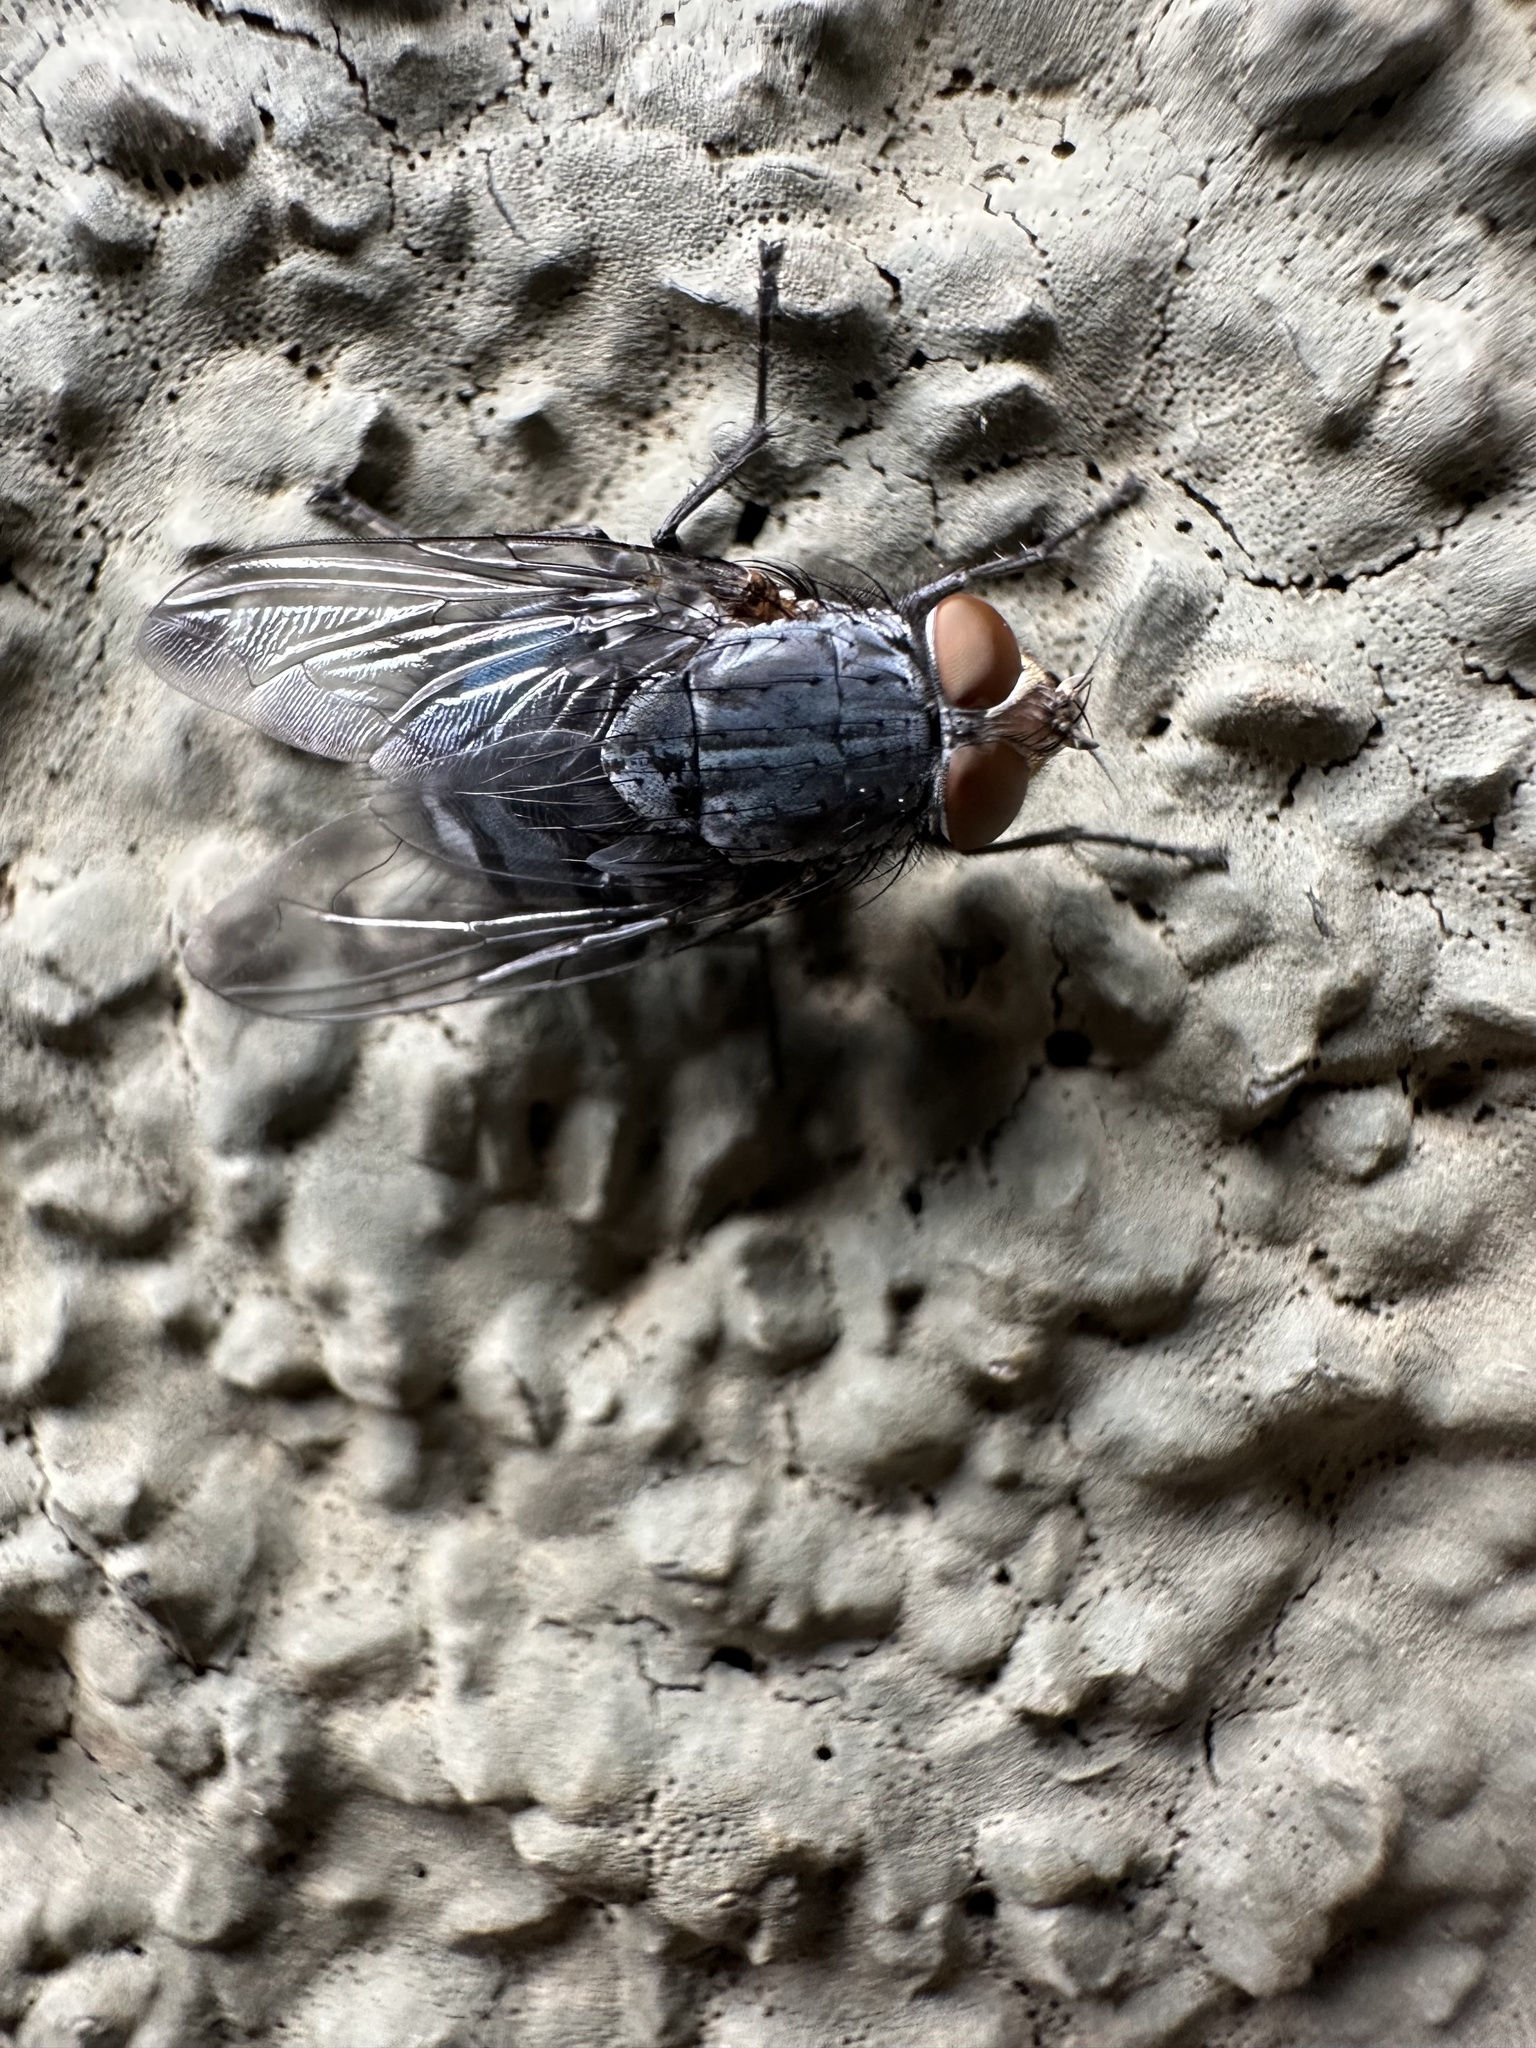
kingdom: Animalia
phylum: Arthropoda
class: Insecta
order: Diptera
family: Calliphoridae
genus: Calliphora
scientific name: Calliphora vicina
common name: Common blow flie
